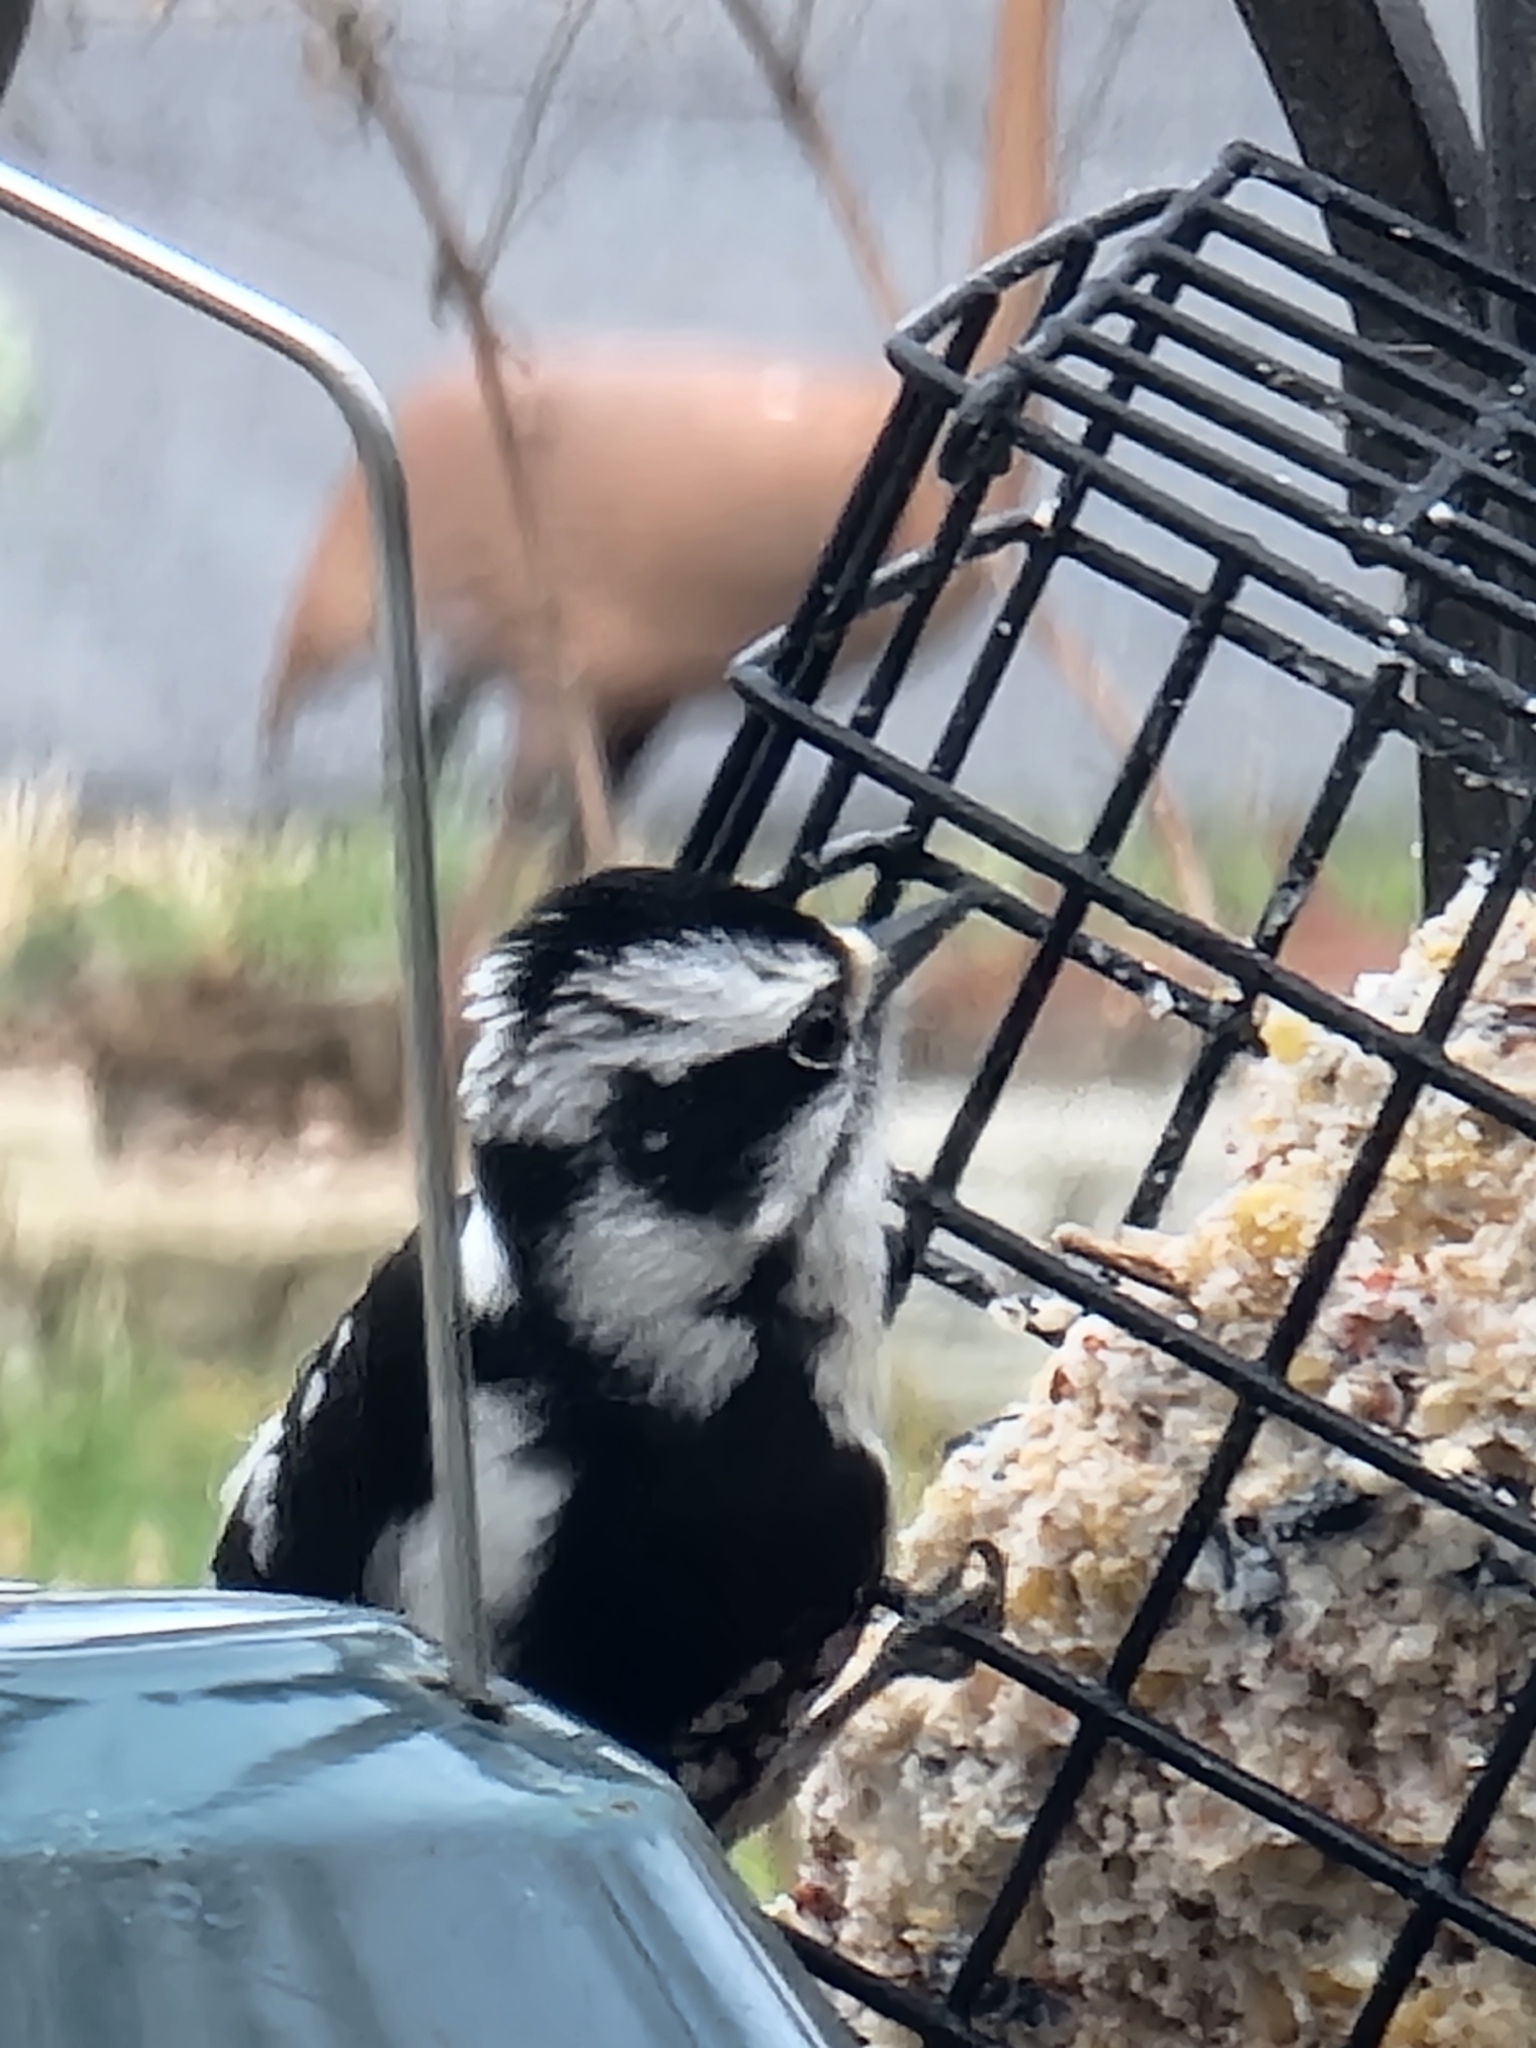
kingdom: Animalia
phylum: Chordata
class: Aves
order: Piciformes
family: Picidae
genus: Dryobates
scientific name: Dryobates pubescens
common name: Downy woodpecker
